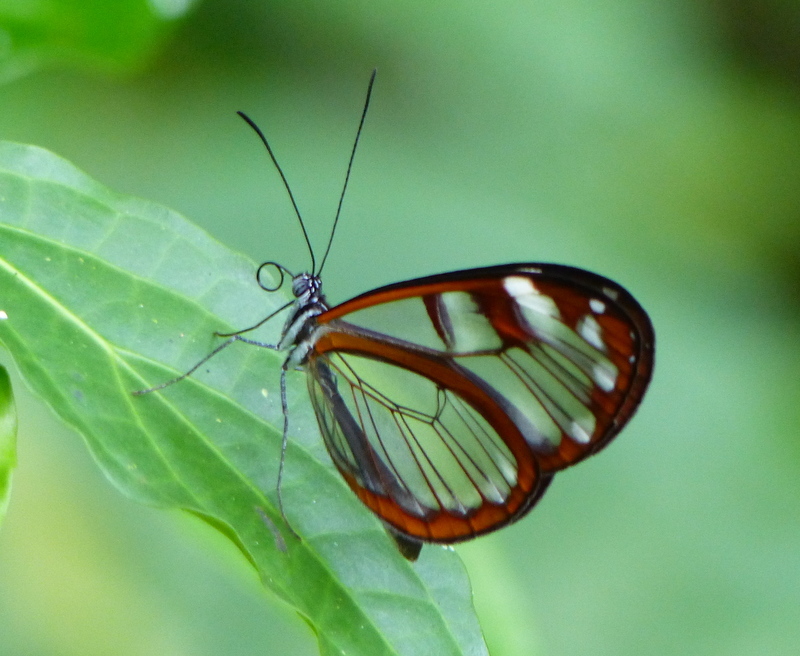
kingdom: Animalia
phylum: Arthropoda
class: Insecta
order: Lepidoptera
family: Nymphalidae
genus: Oleria
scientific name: Oleria vicina
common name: Vicina clearwing
